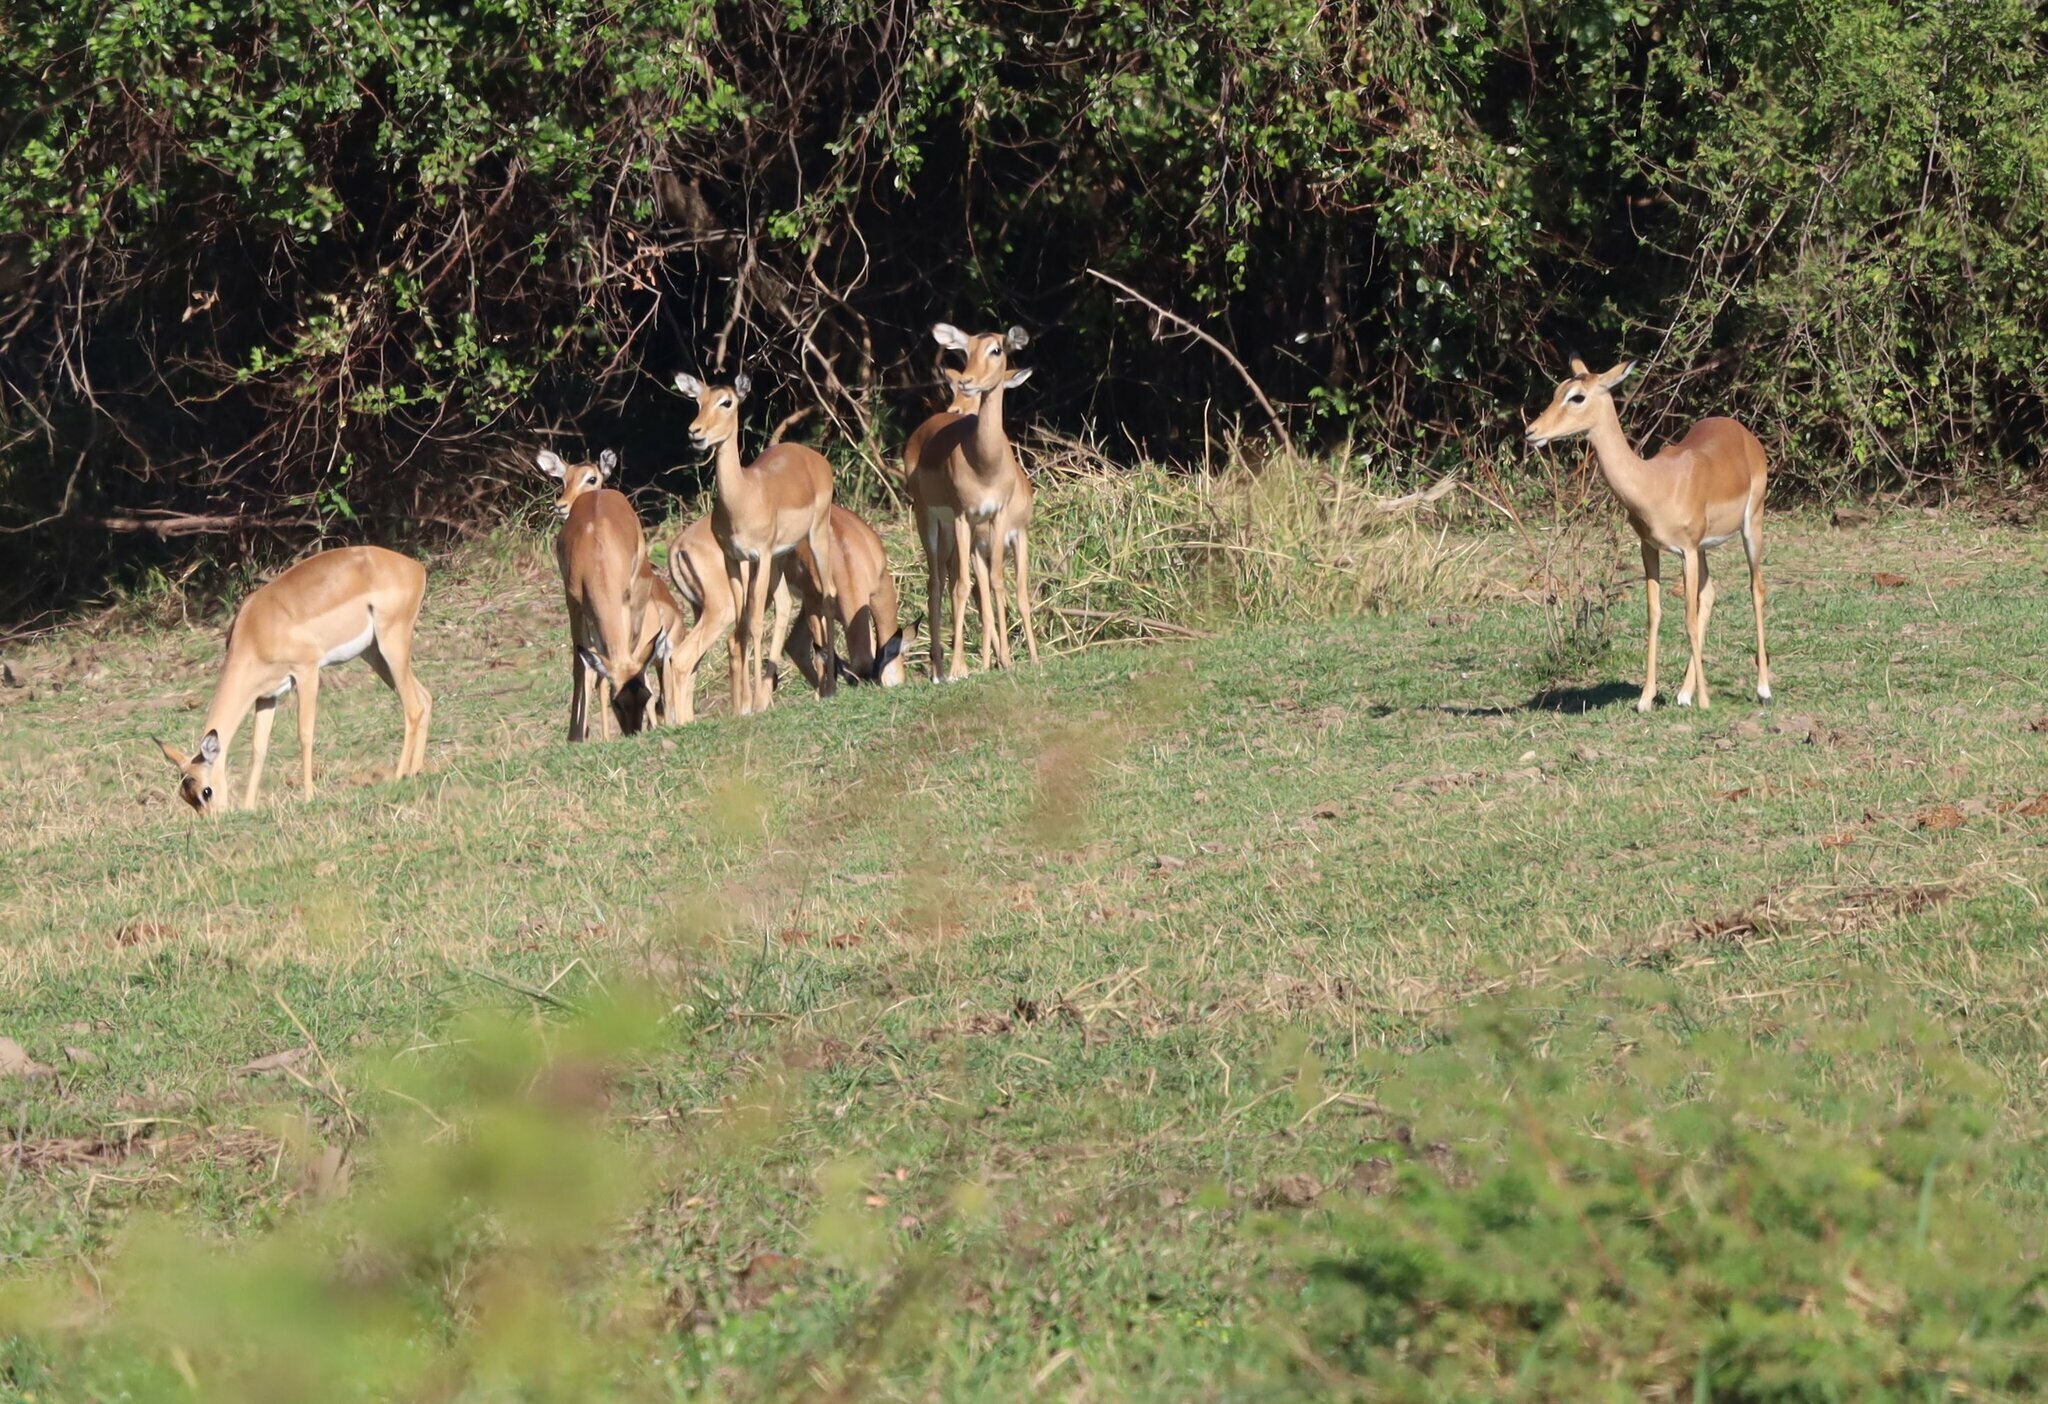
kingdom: Animalia
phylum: Chordata
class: Mammalia
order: Artiodactyla
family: Bovidae
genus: Aepyceros
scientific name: Aepyceros melampus
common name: Impala
